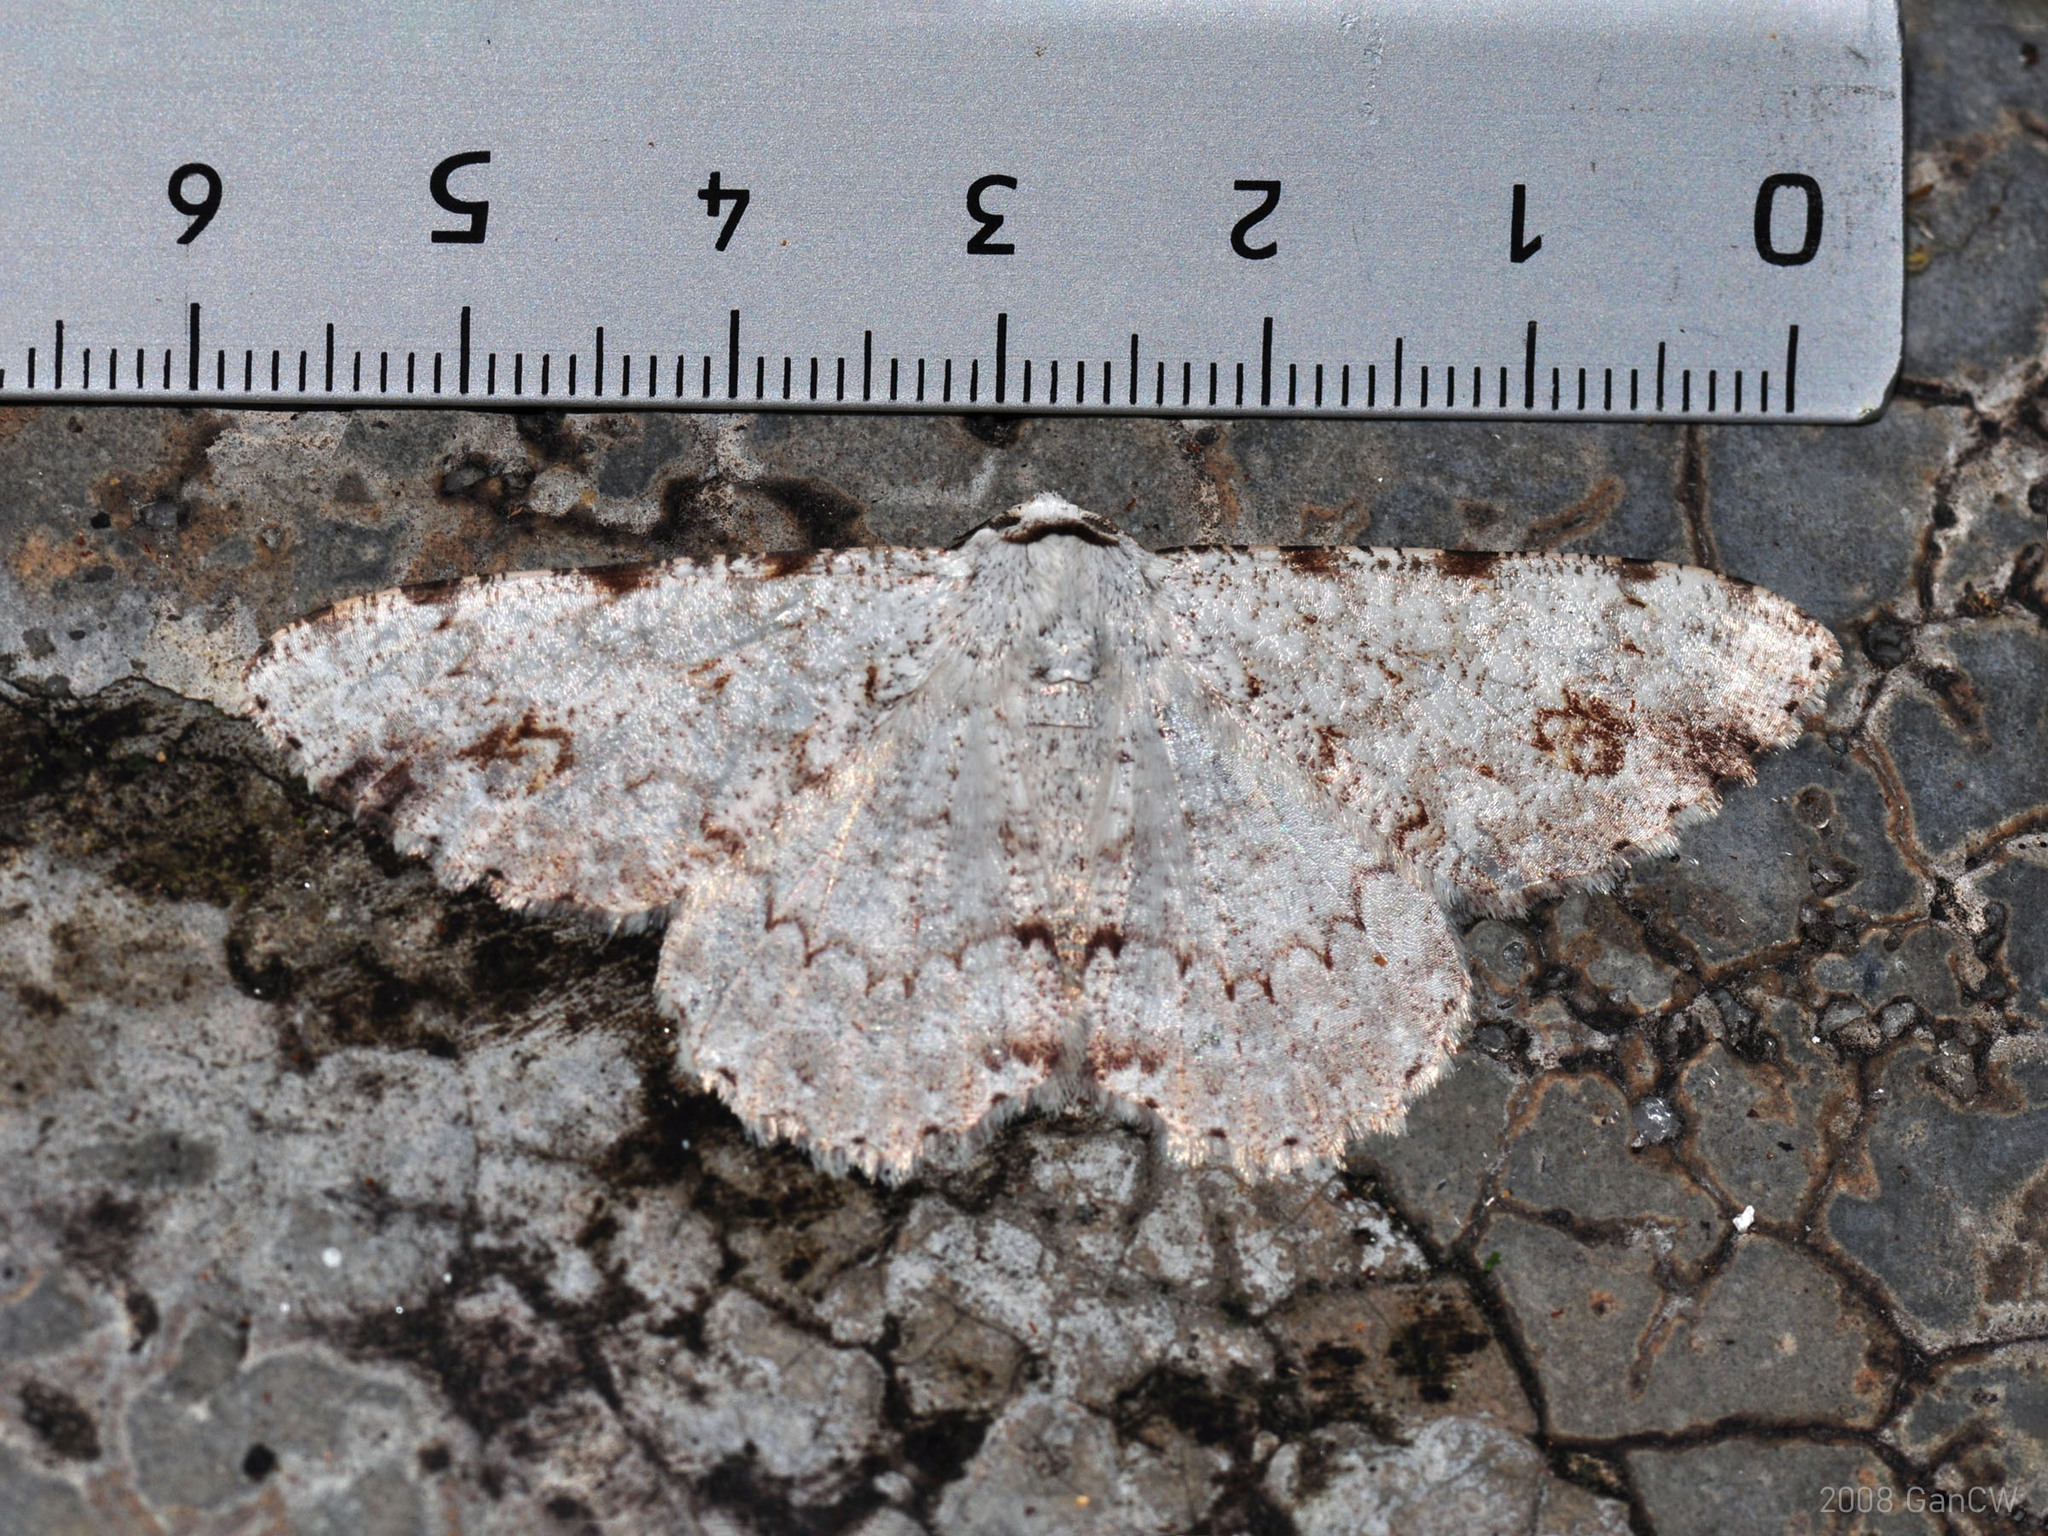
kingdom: Animalia
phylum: Arthropoda
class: Insecta
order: Lepidoptera
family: Geometridae
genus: Lassaba
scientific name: Lassaba acribomena
